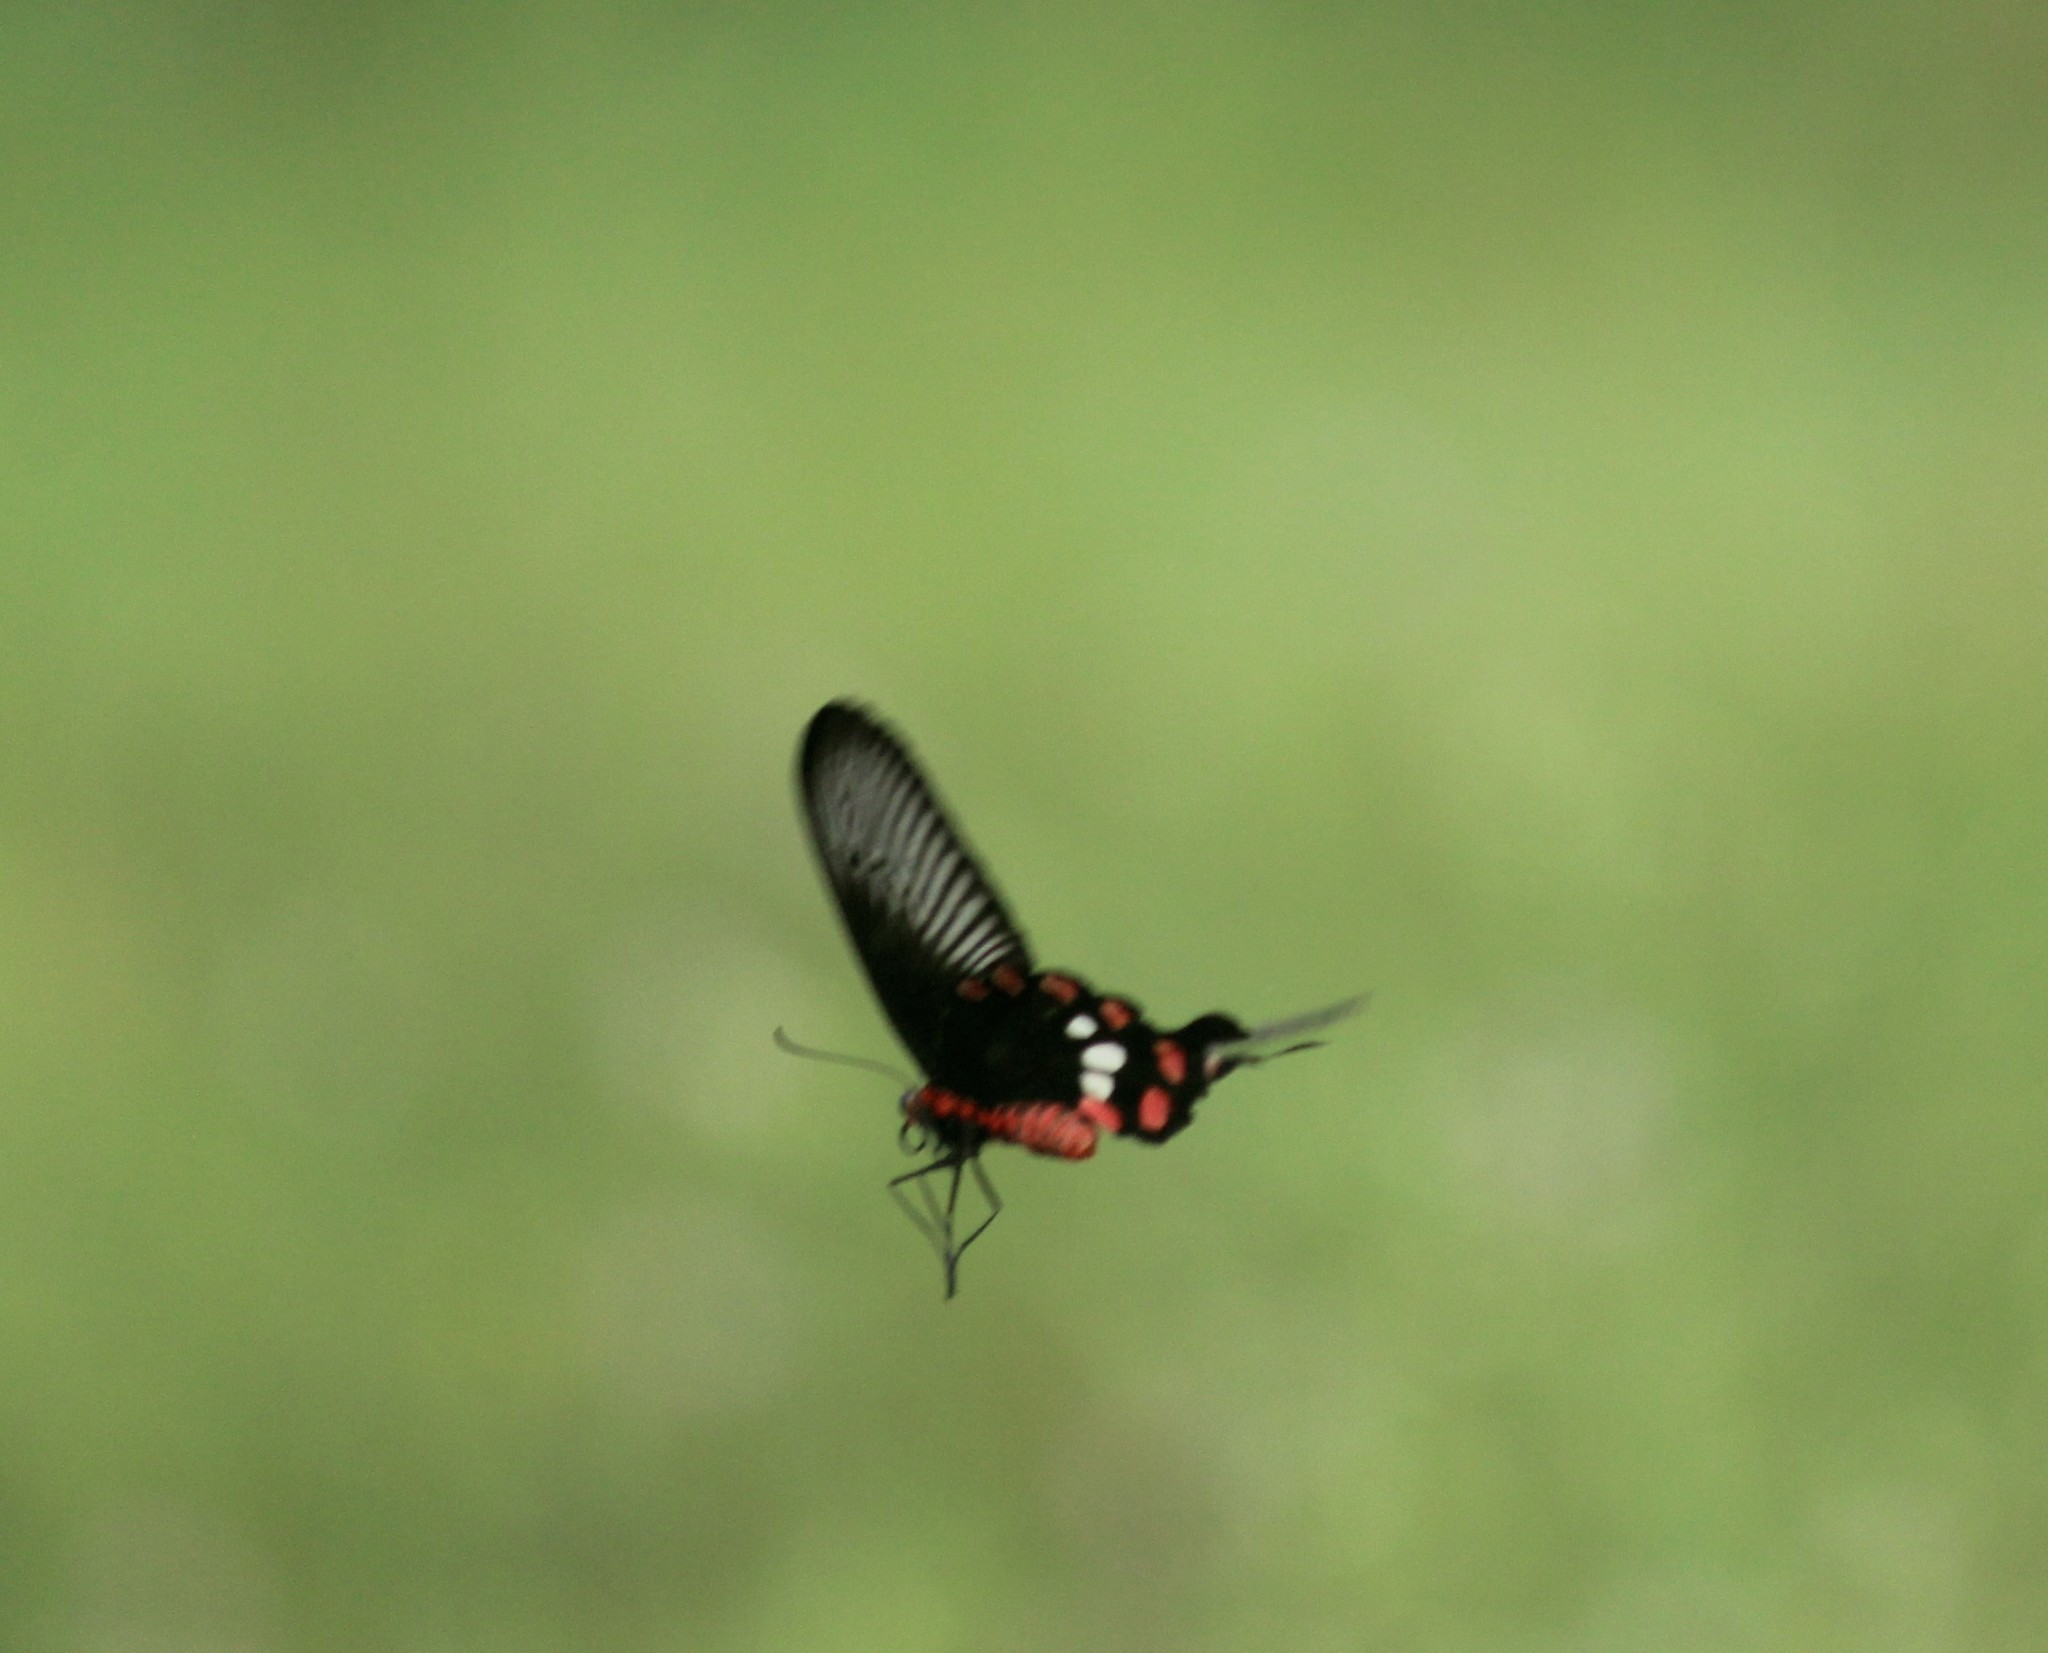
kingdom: Animalia
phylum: Arthropoda
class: Insecta
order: Lepidoptera
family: Papilionidae
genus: Pachliopta
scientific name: Pachliopta aristolochiae
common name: Common rose
